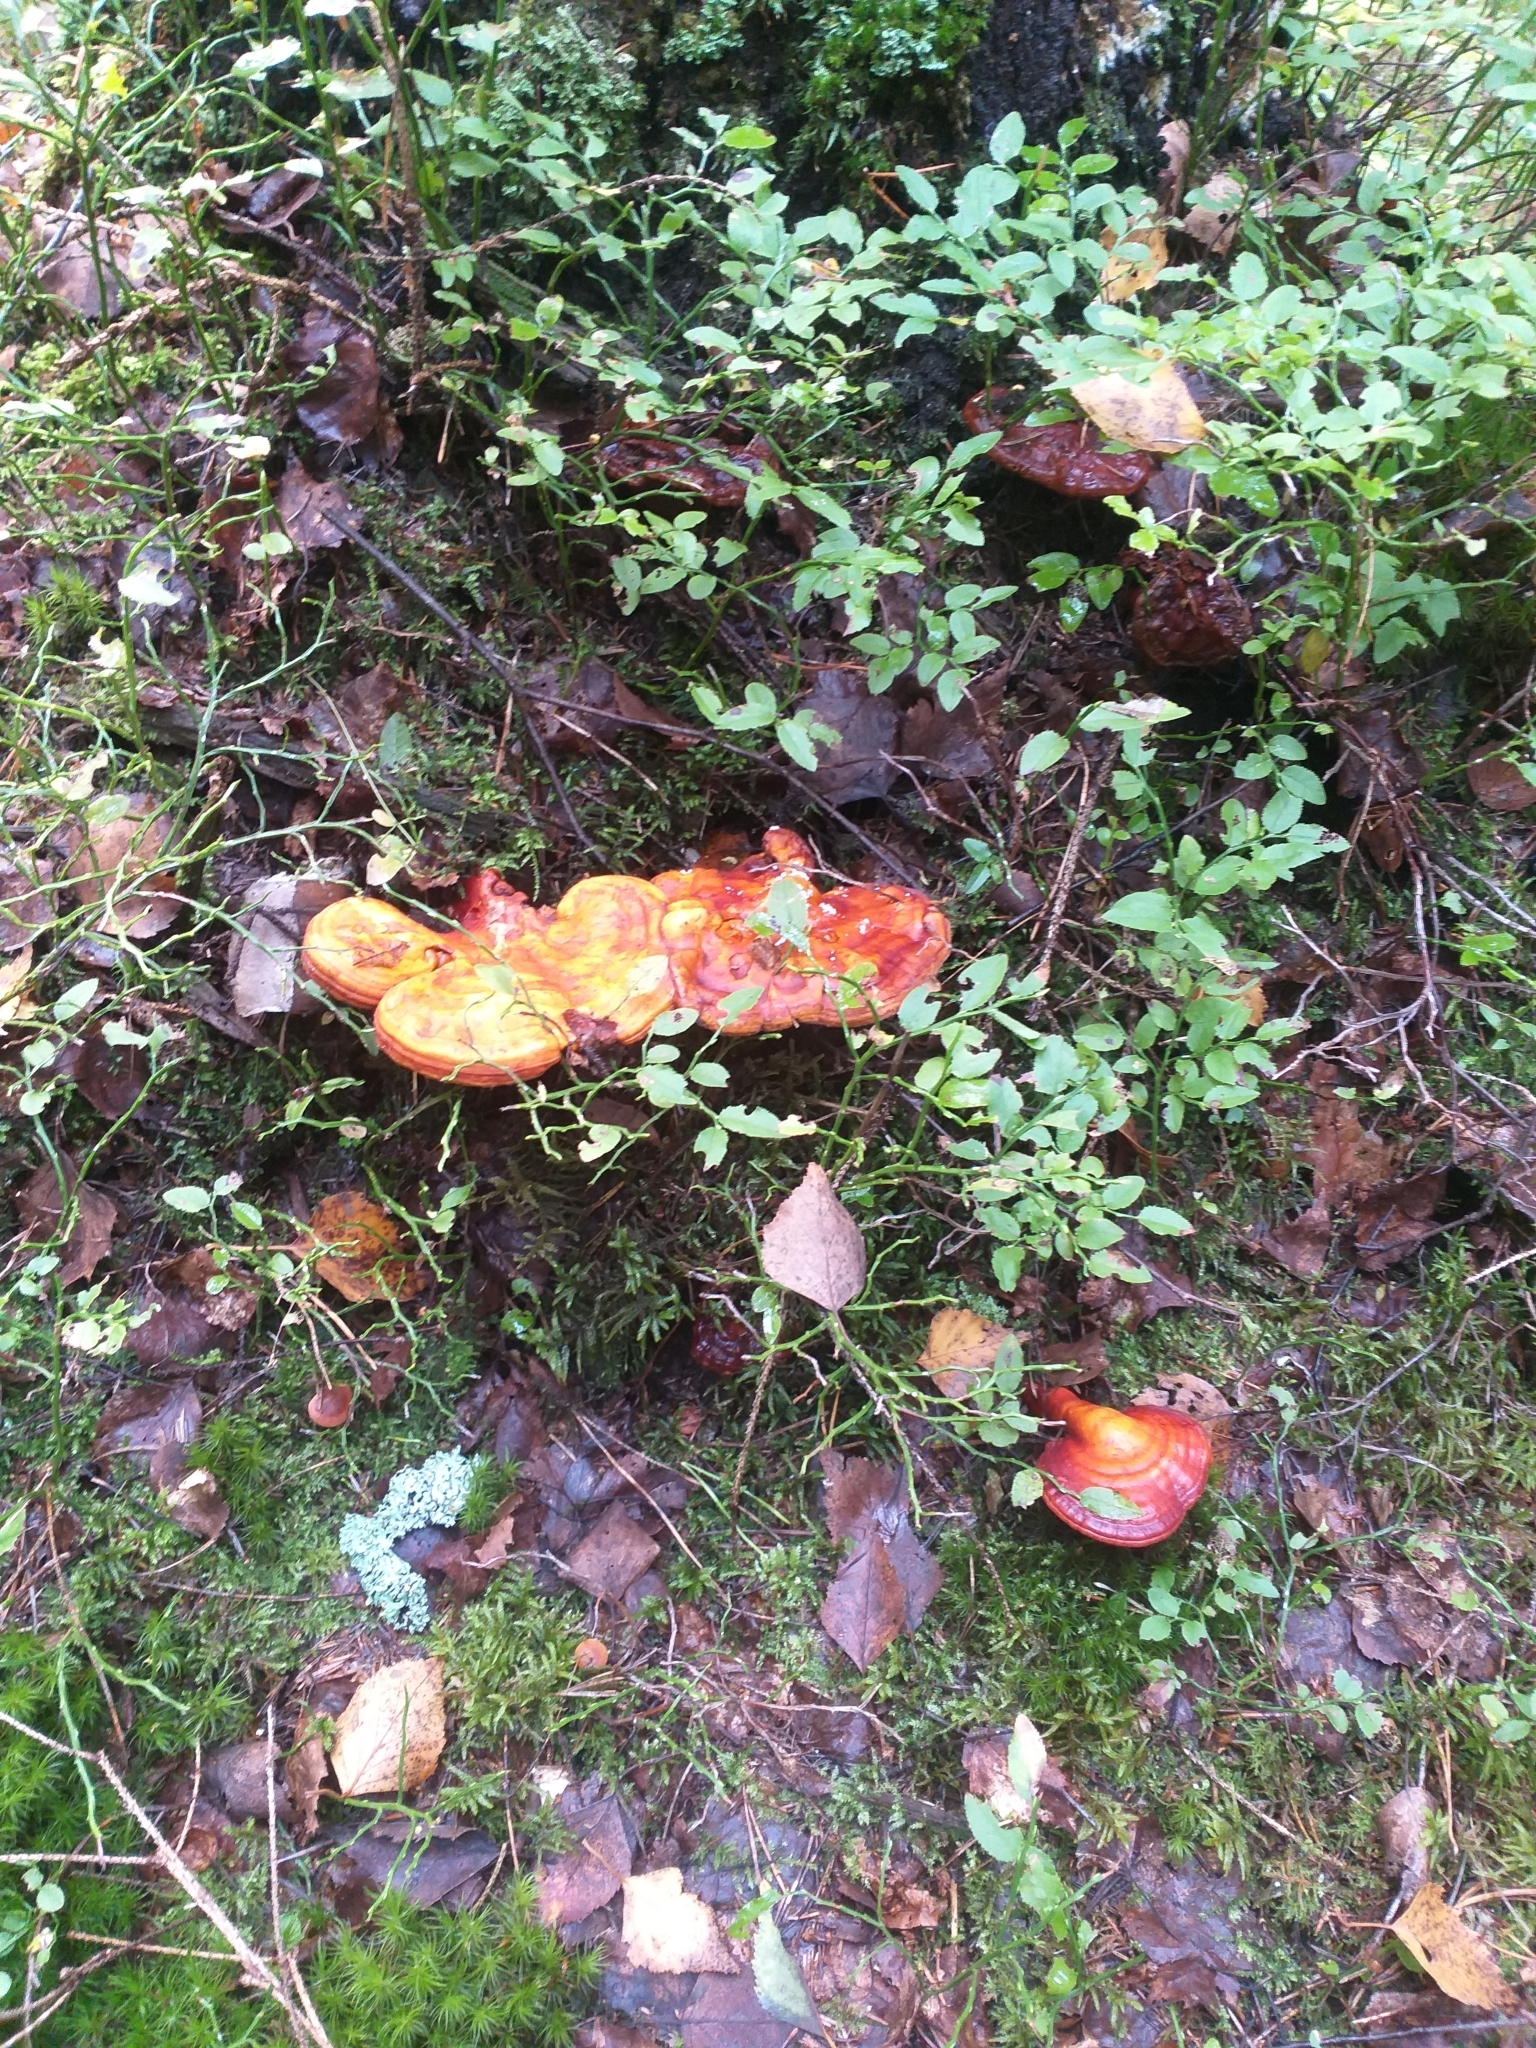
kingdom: Fungi
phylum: Basidiomycota
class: Agaricomycetes
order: Polyporales
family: Polyporaceae
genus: Ganoderma
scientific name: Ganoderma lucidum
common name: Lacquered bracket
